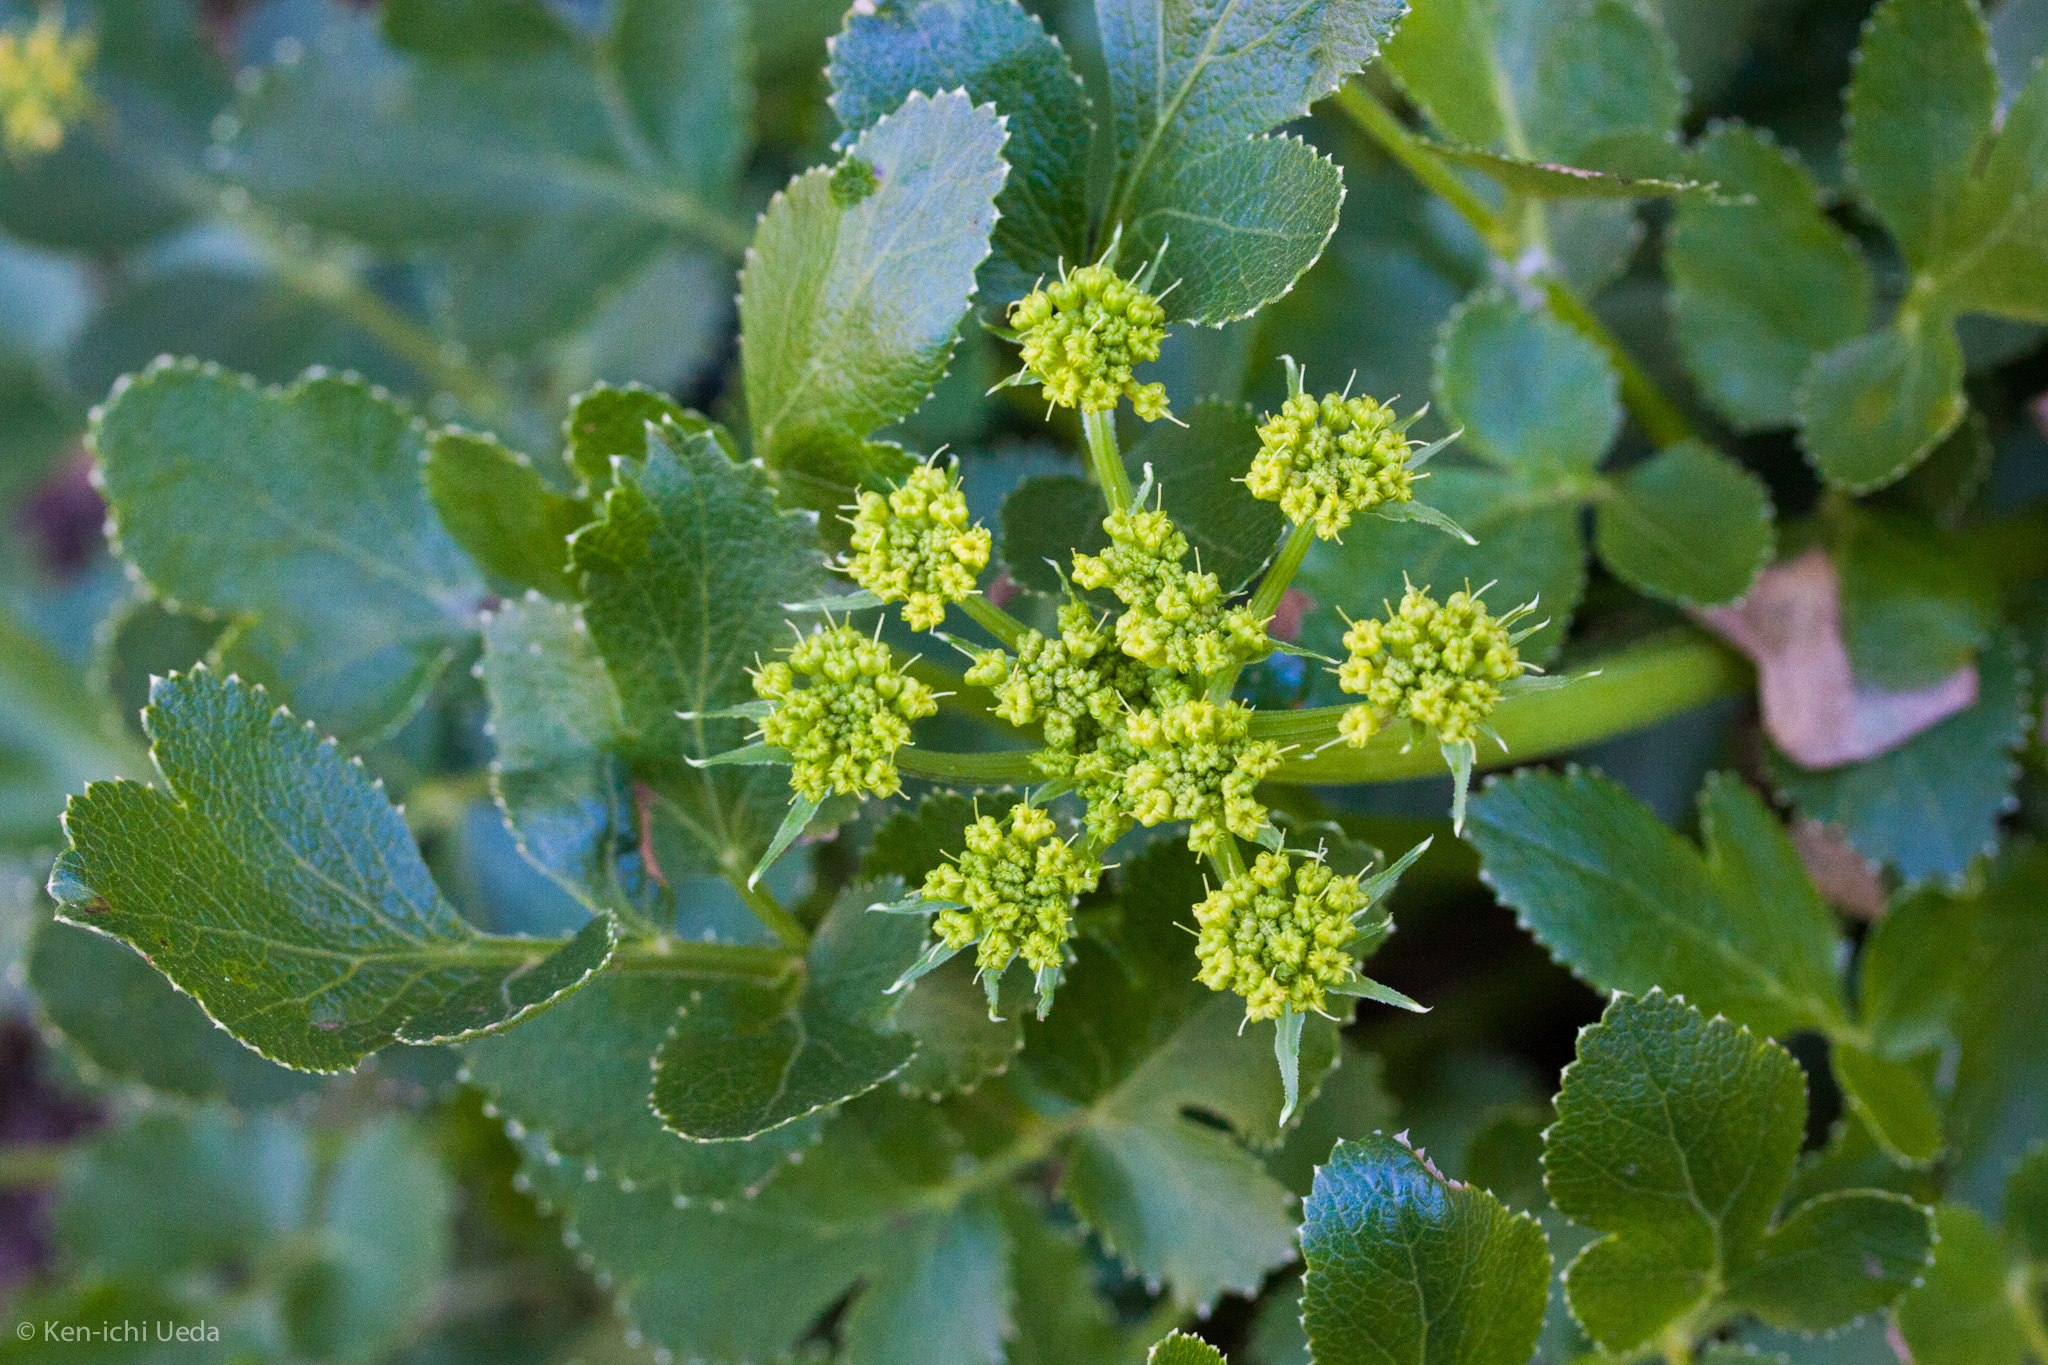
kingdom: Plantae
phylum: Tracheophyta
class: Magnoliopsida
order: Apiales
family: Apiaceae
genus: Tauschia
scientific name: Tauschia hartwegii
